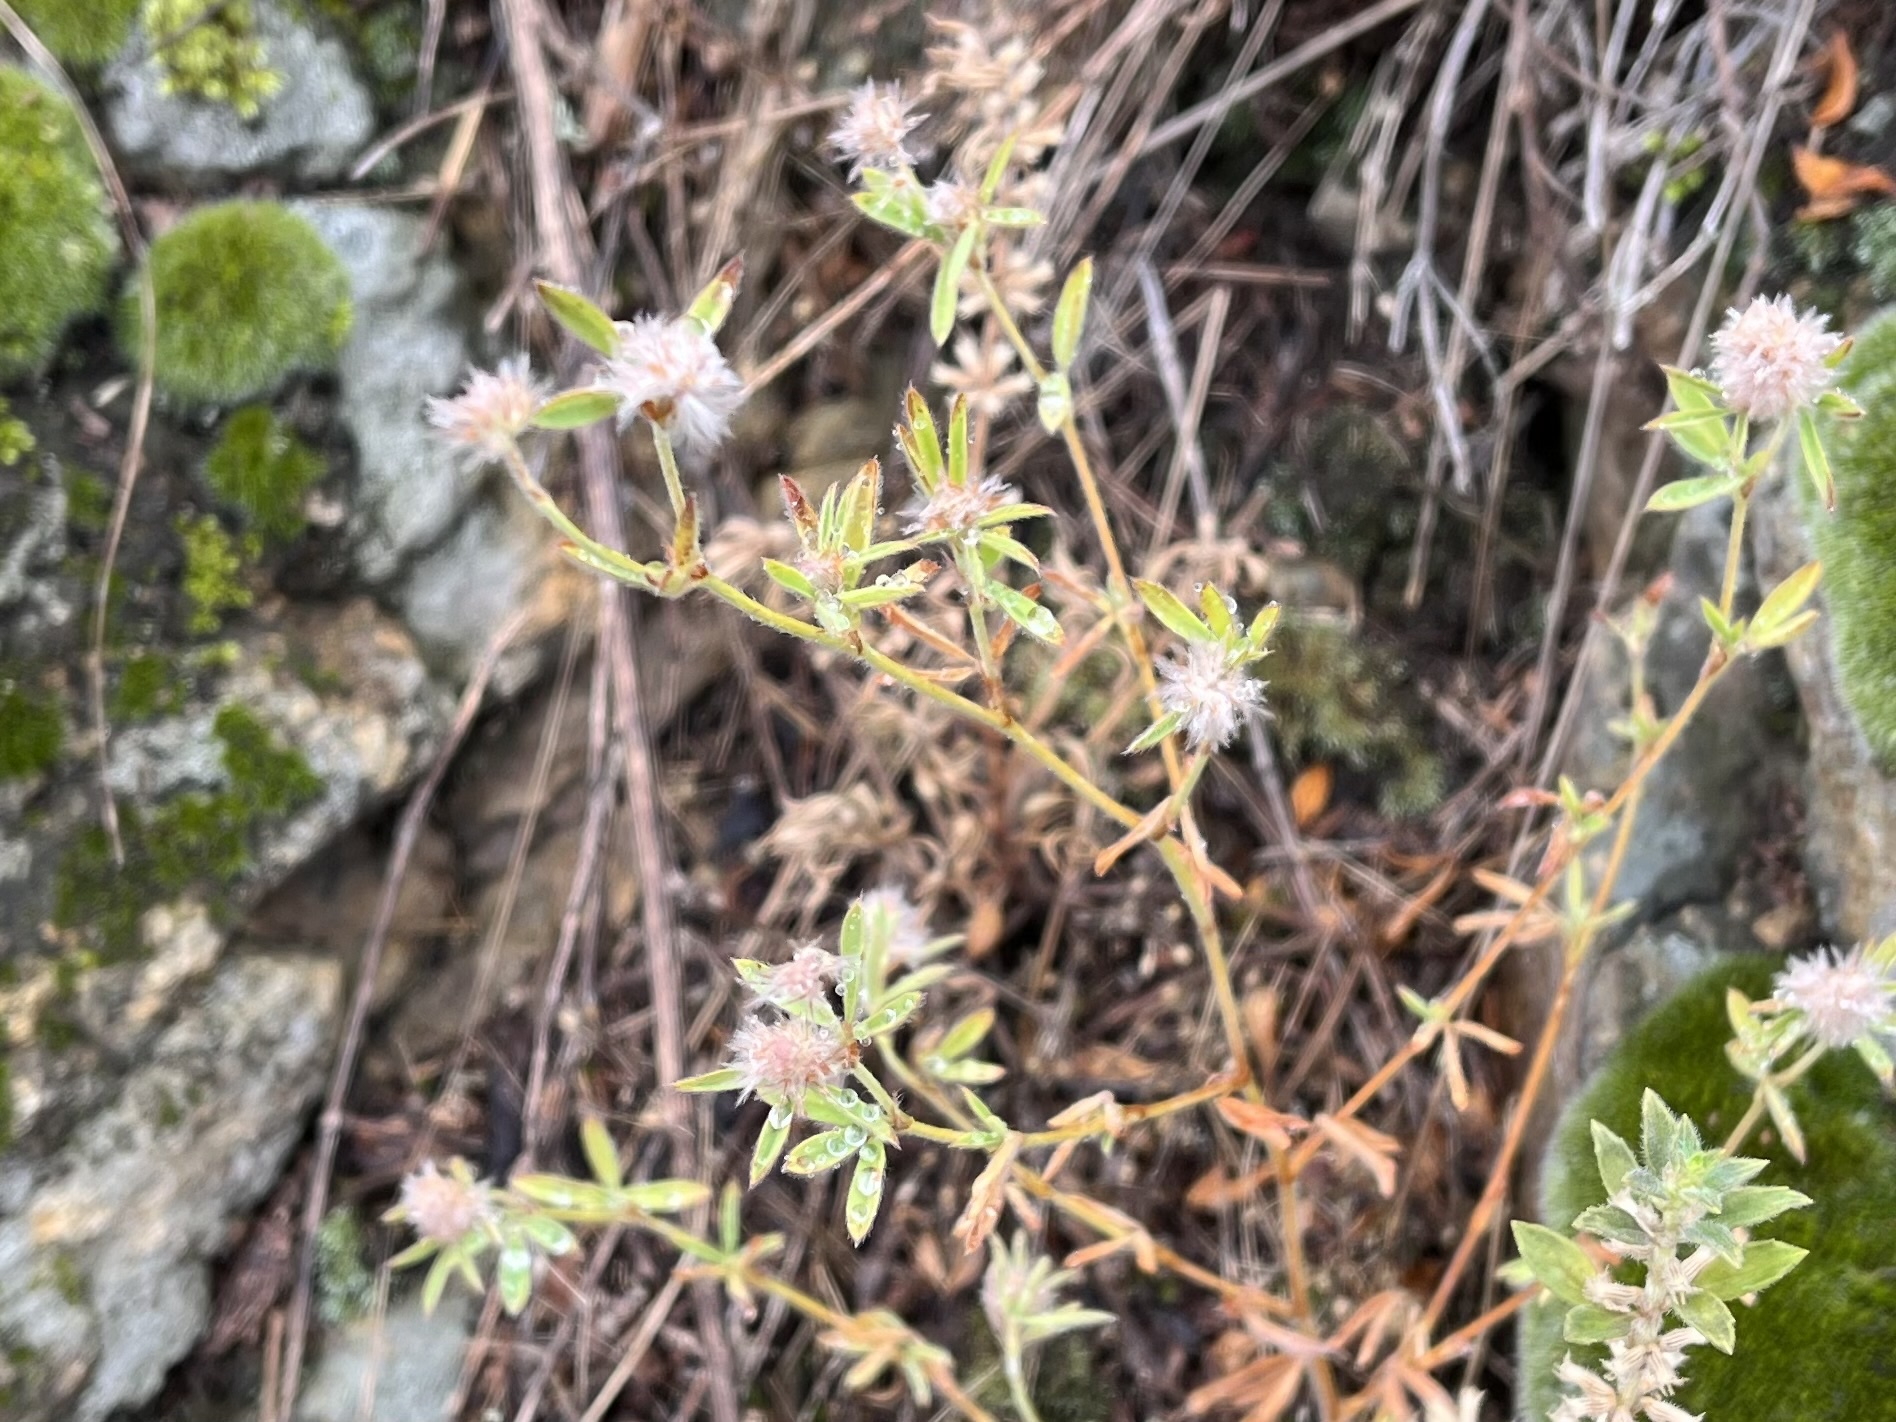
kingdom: Plantae
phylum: Tracheophyta
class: Magnoliopsida
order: Fabales
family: Fabaceae
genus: Trifolium
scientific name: Trifolium arvense
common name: Hare's-foot clover
